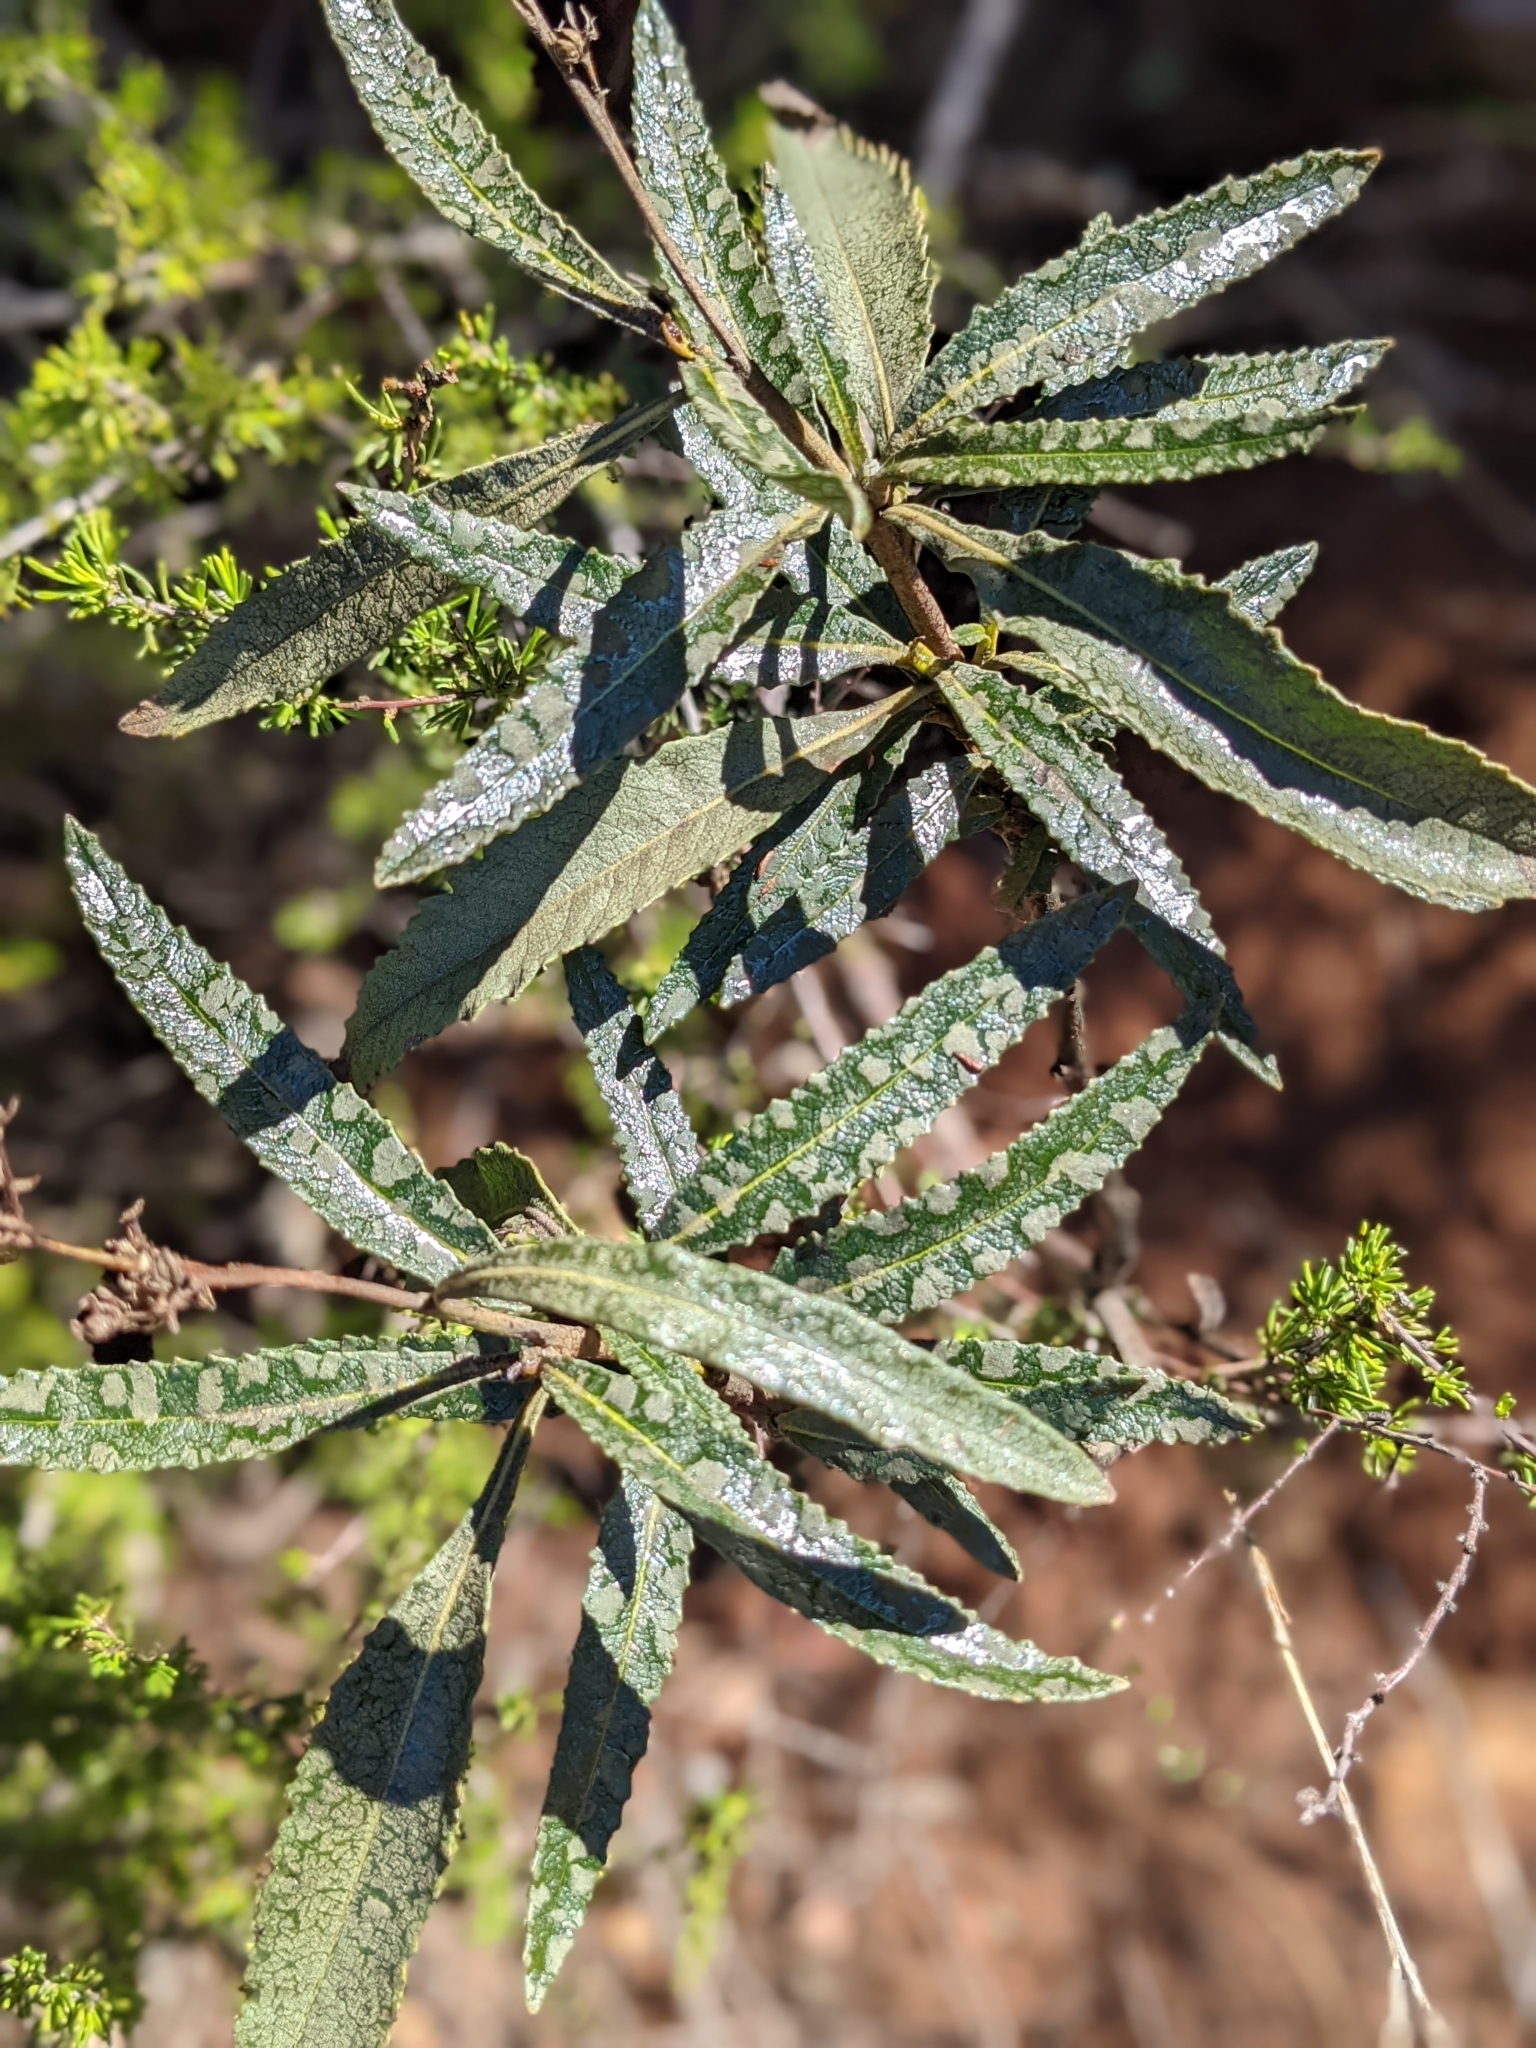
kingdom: Plantae
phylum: Tracheophyta
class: Magnoliopsida
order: Boraginales
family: Namaceae
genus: Eriodictyon
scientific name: Eriodictyon californicum
